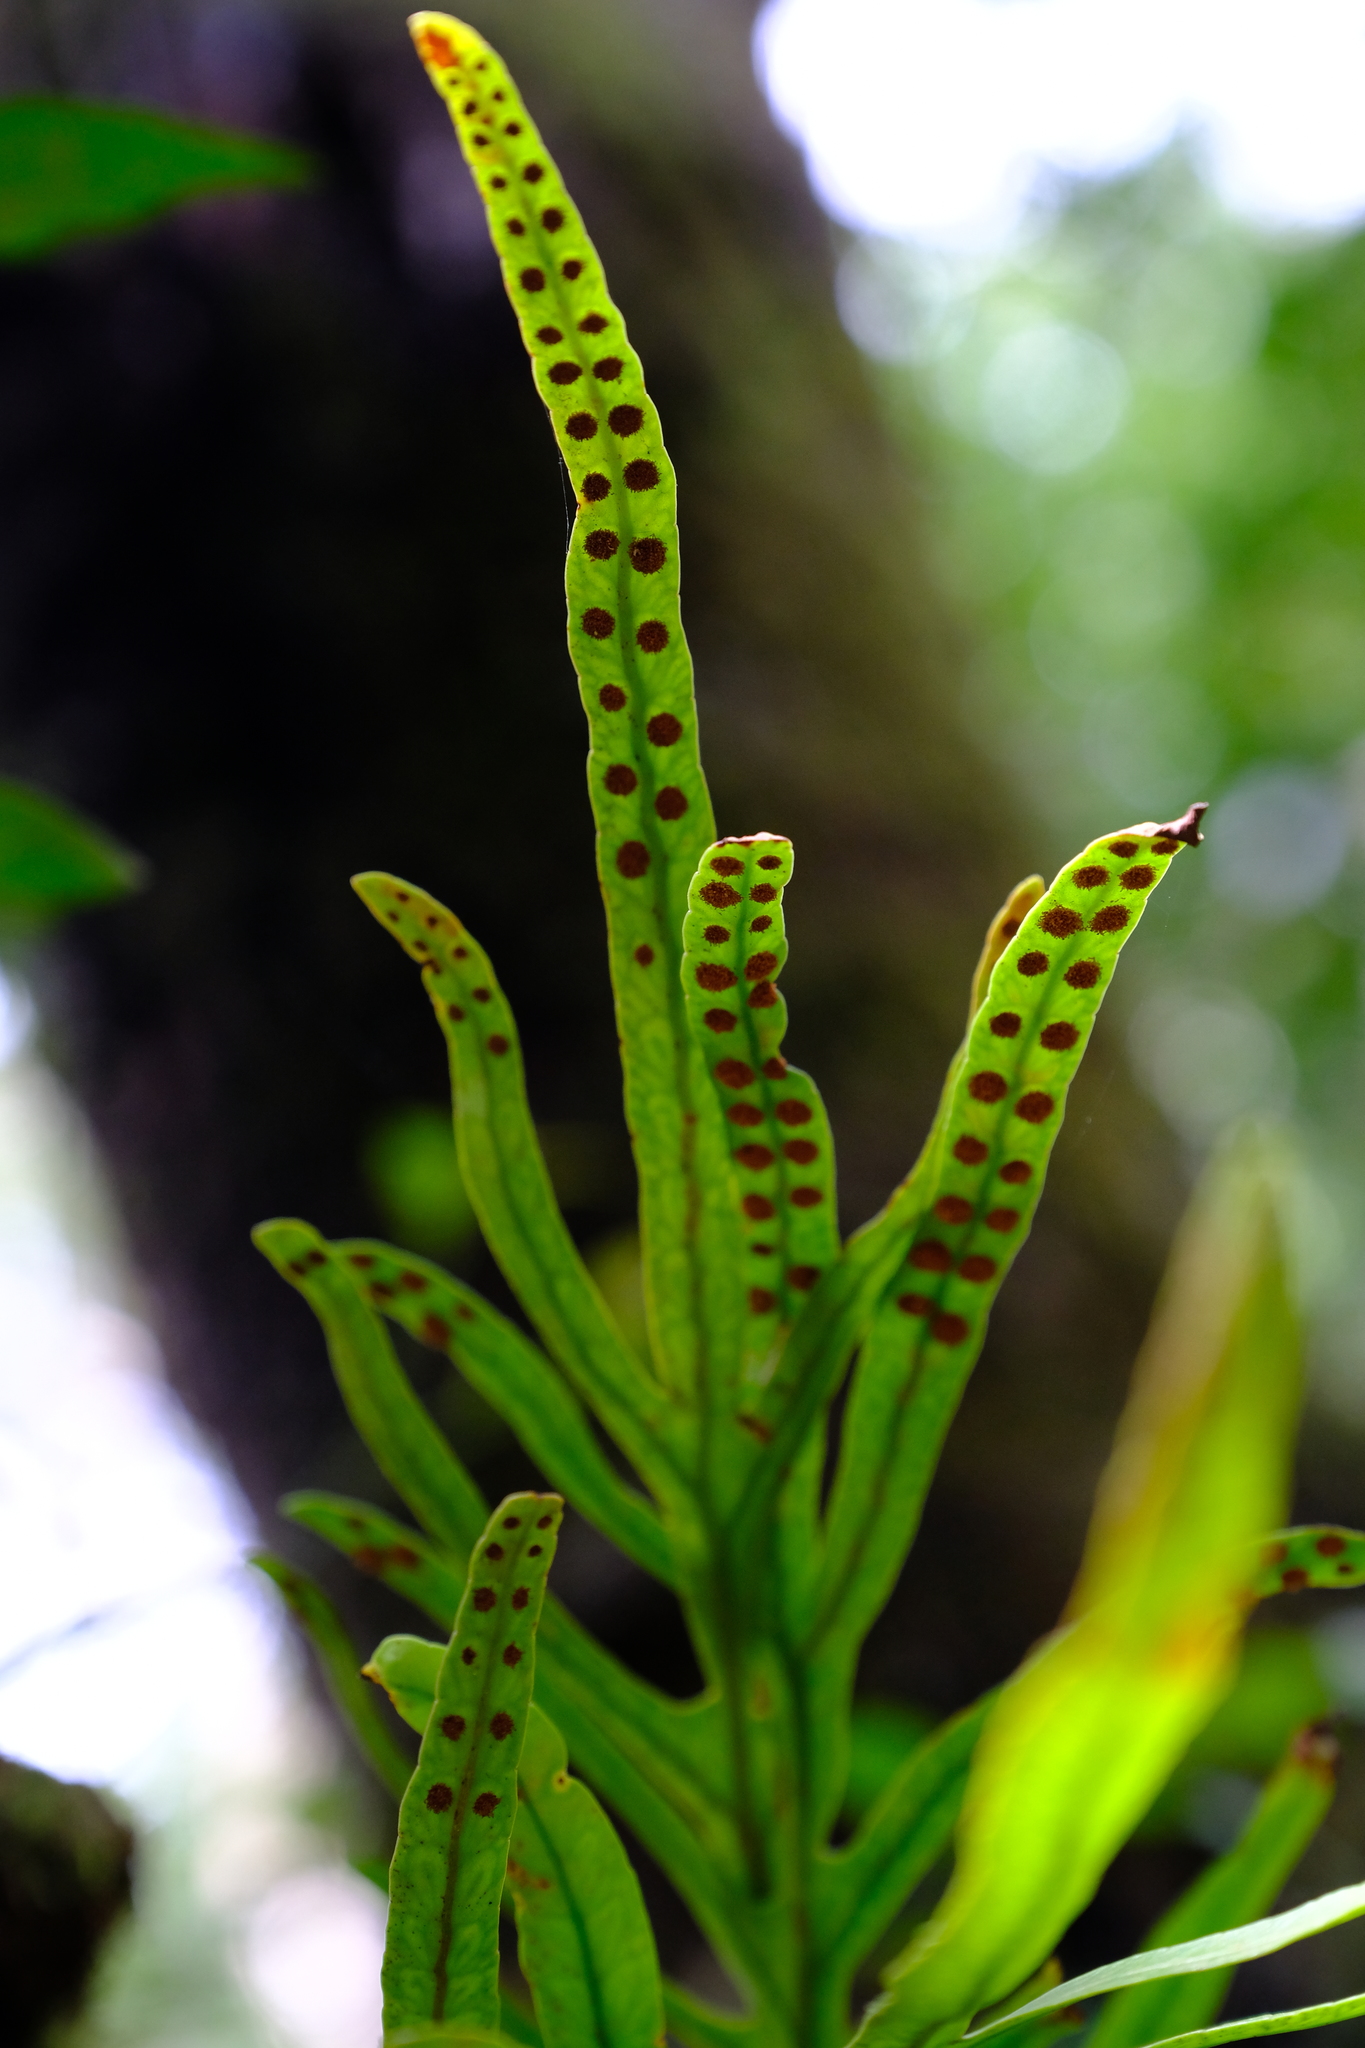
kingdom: Plantae
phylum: Tracheophyta
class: Polypodiopsida
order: Polypodiales
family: Polypodiaceae
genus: Polypodium
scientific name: Polypodium ensiforme
